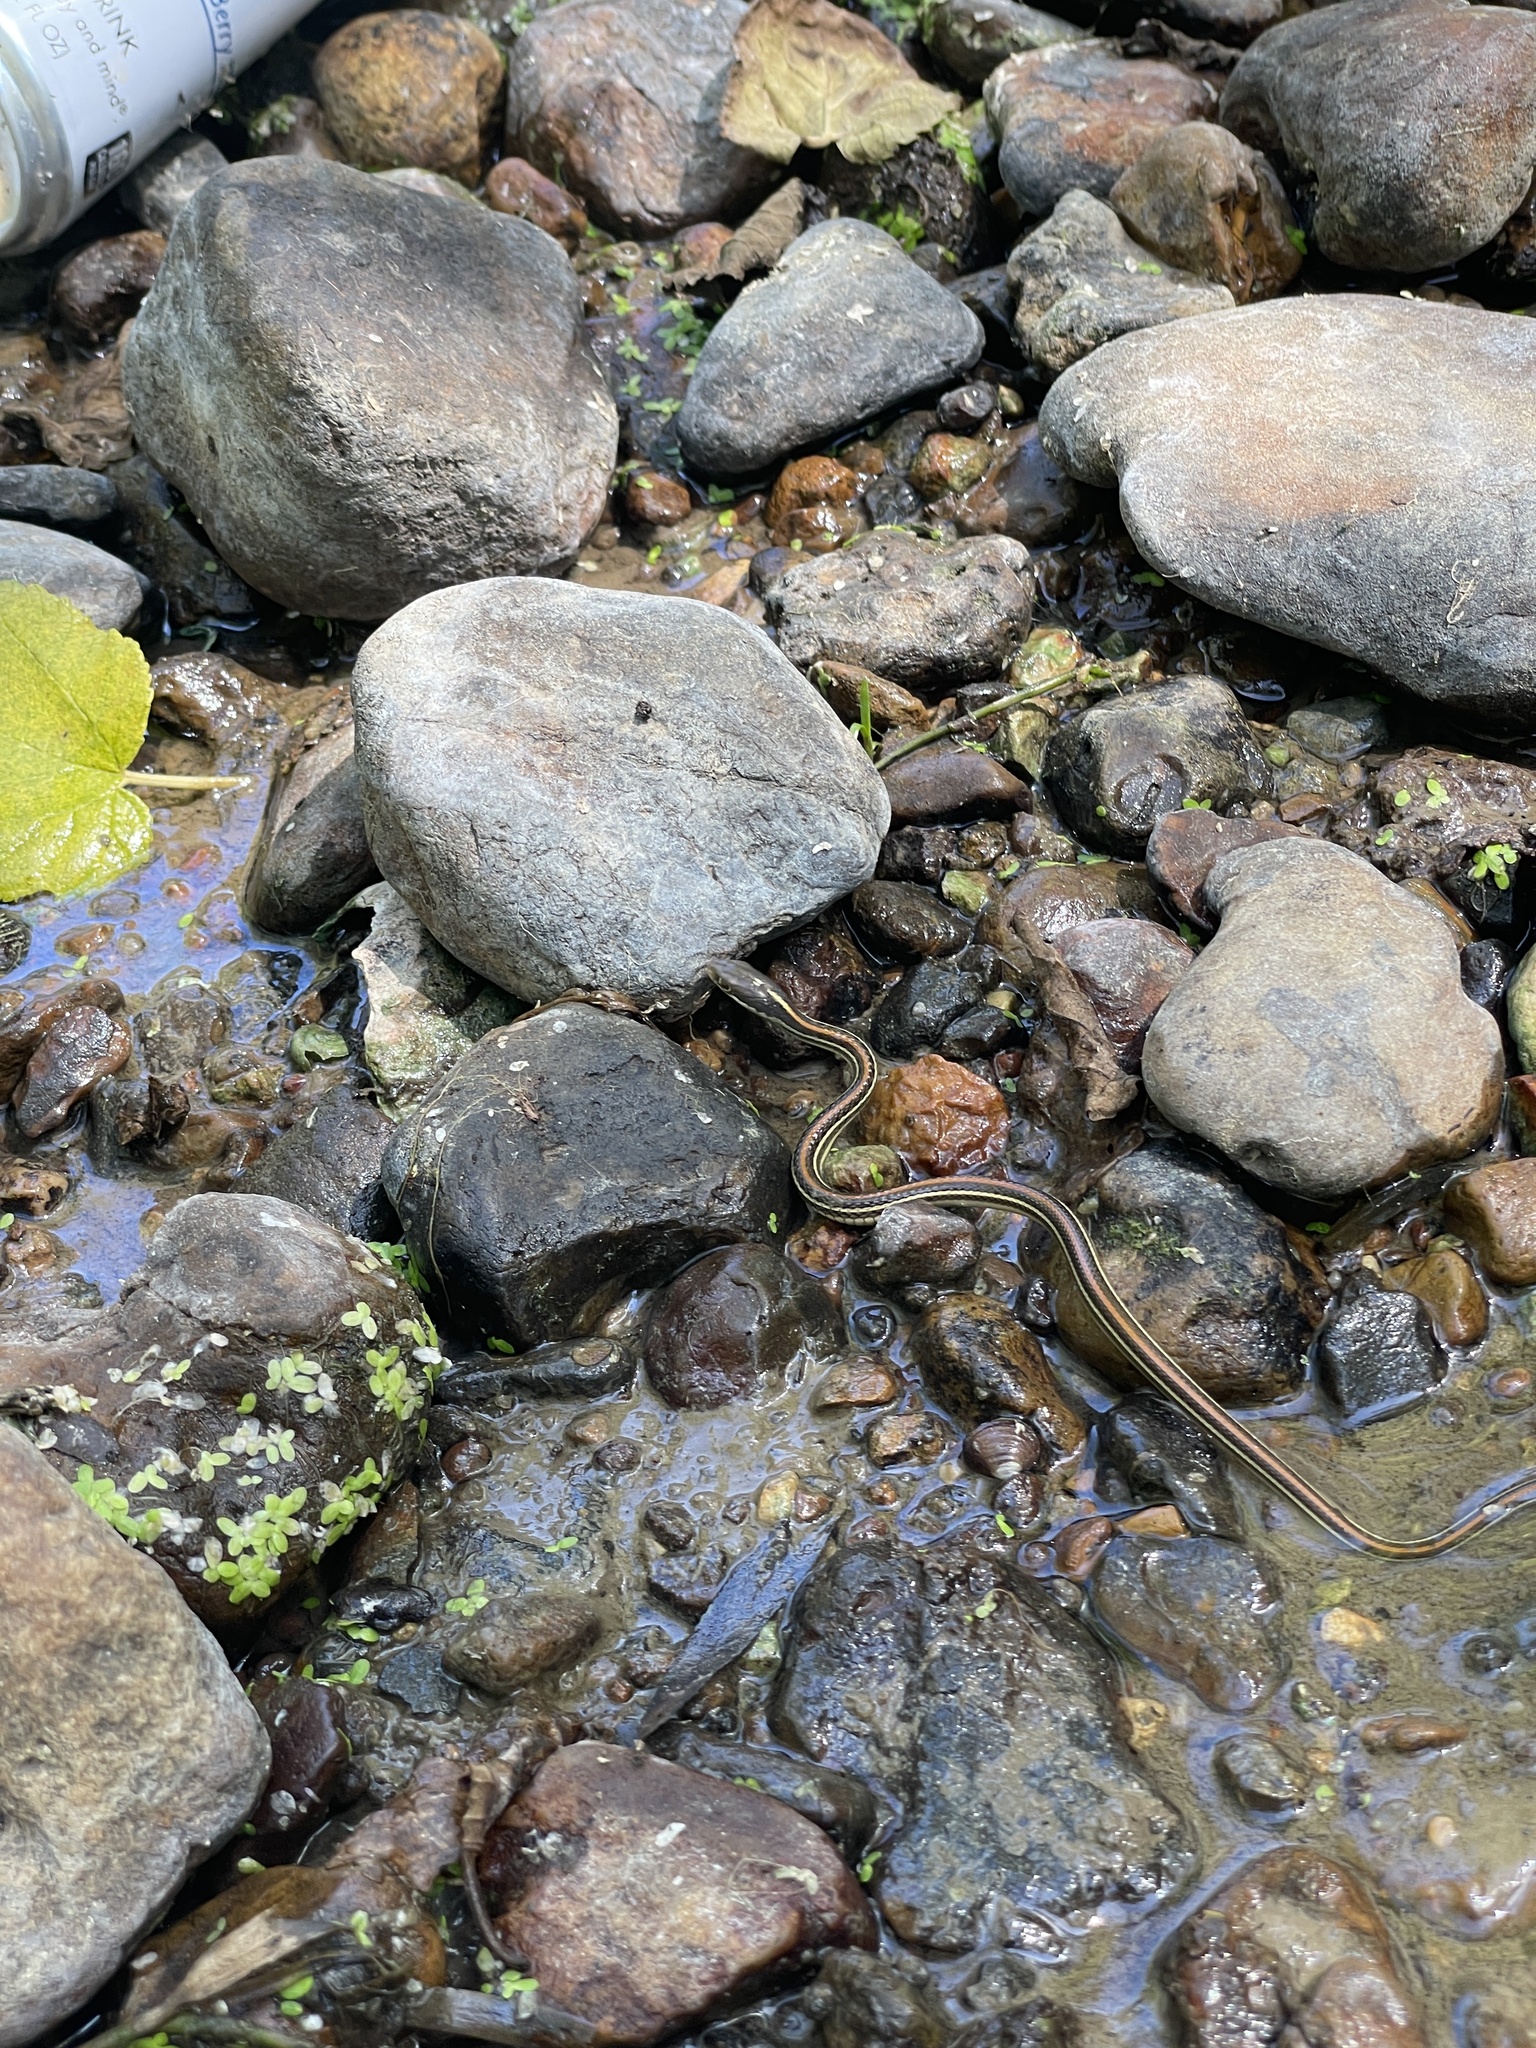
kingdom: Animalia
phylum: Chordata
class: Squamata
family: Colubridae
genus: Thamnophis
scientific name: Thamnophis proximus
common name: Western ribbon snake
